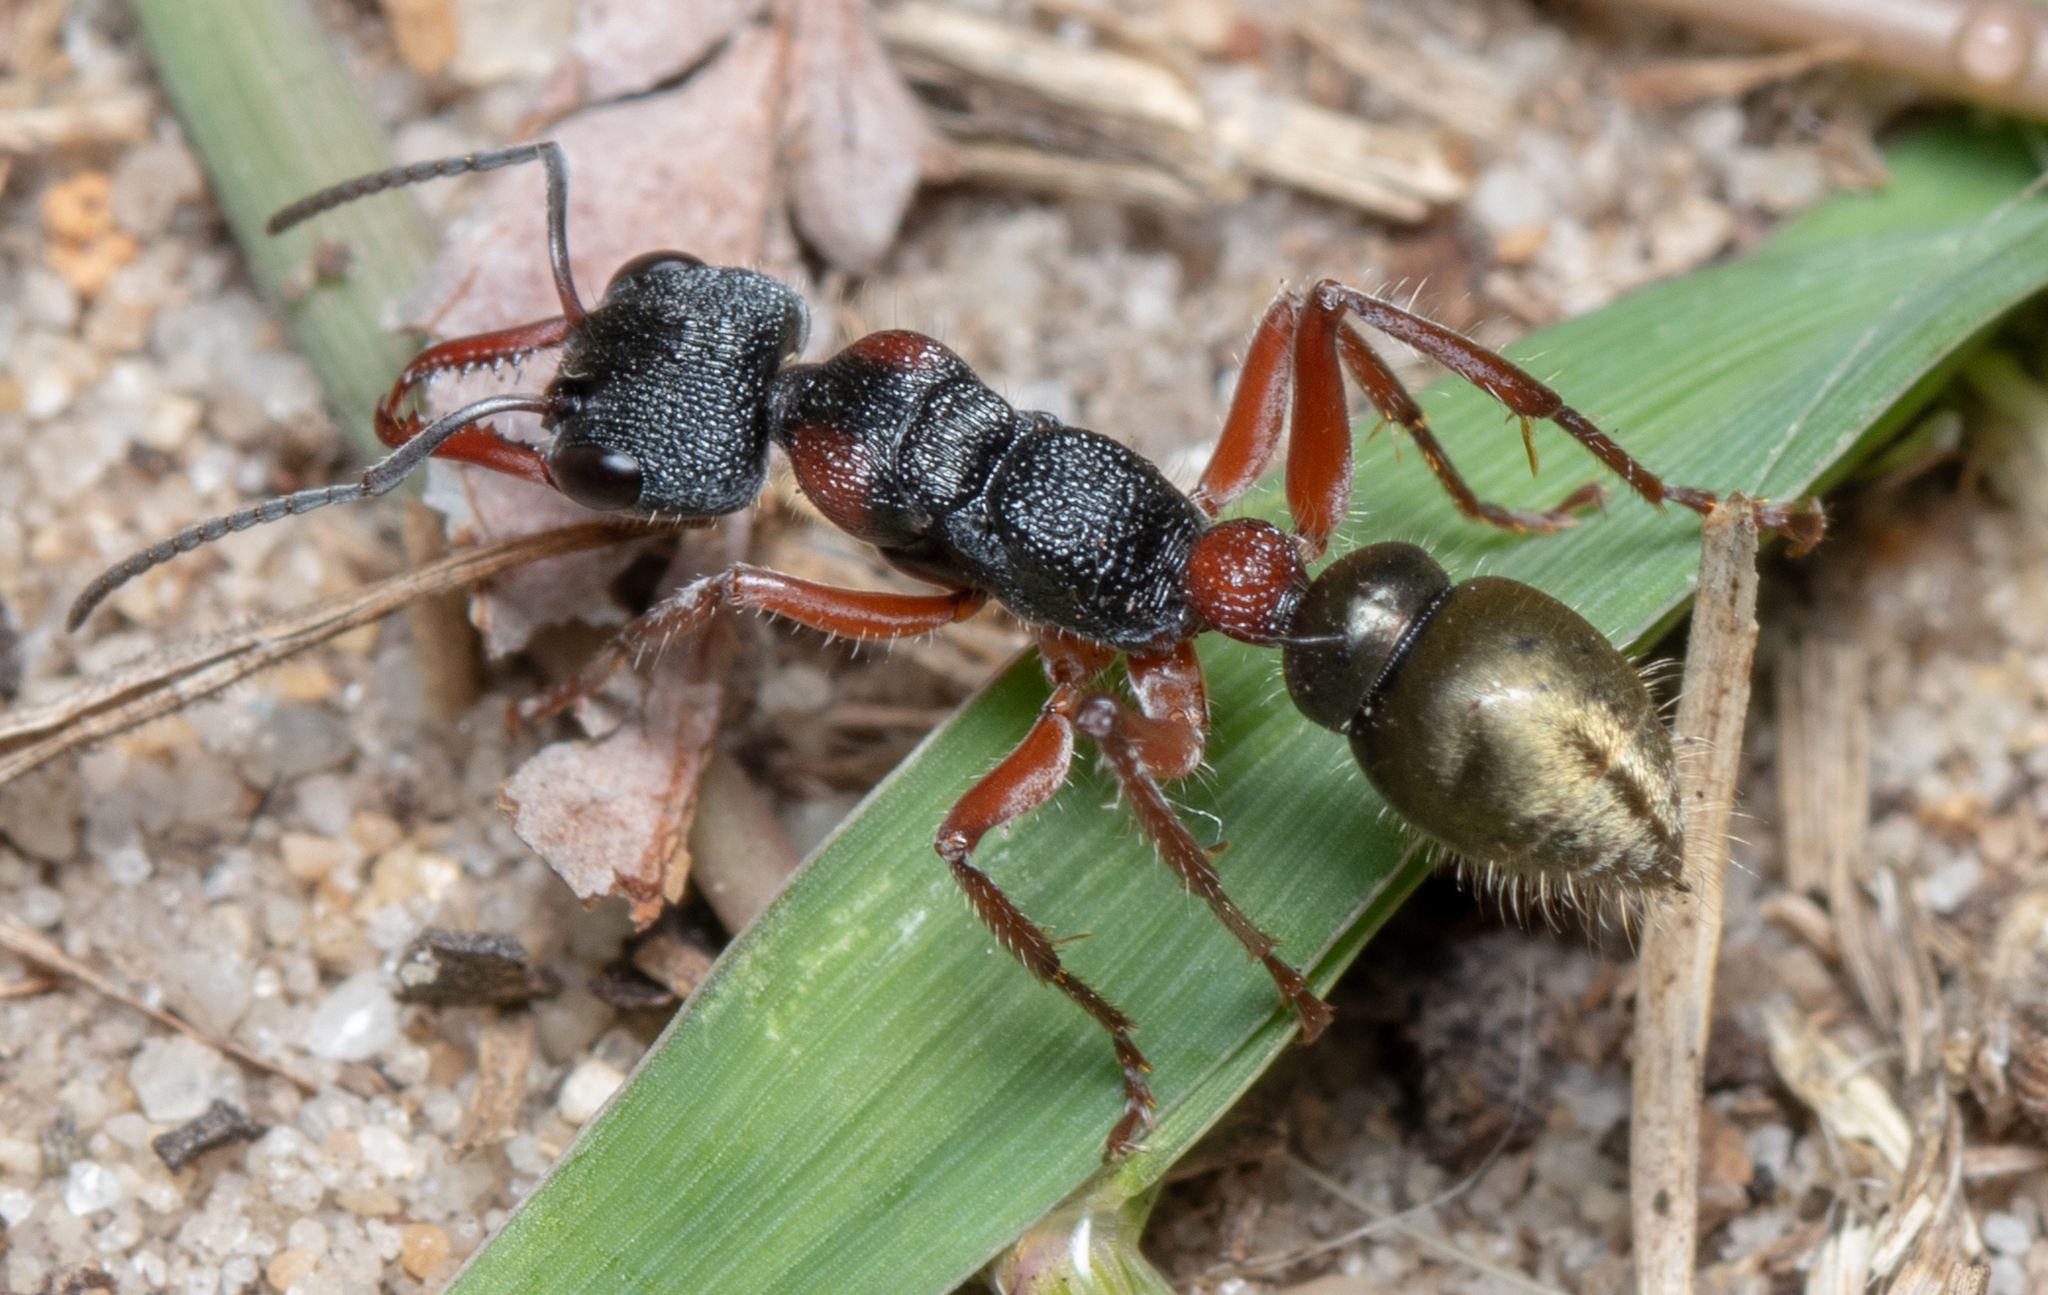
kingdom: Animalia
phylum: Arthropoda
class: Insecta
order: Hymenoptera
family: Formicidae
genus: Myrmecia
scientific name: Myrmecia chrysogaster
